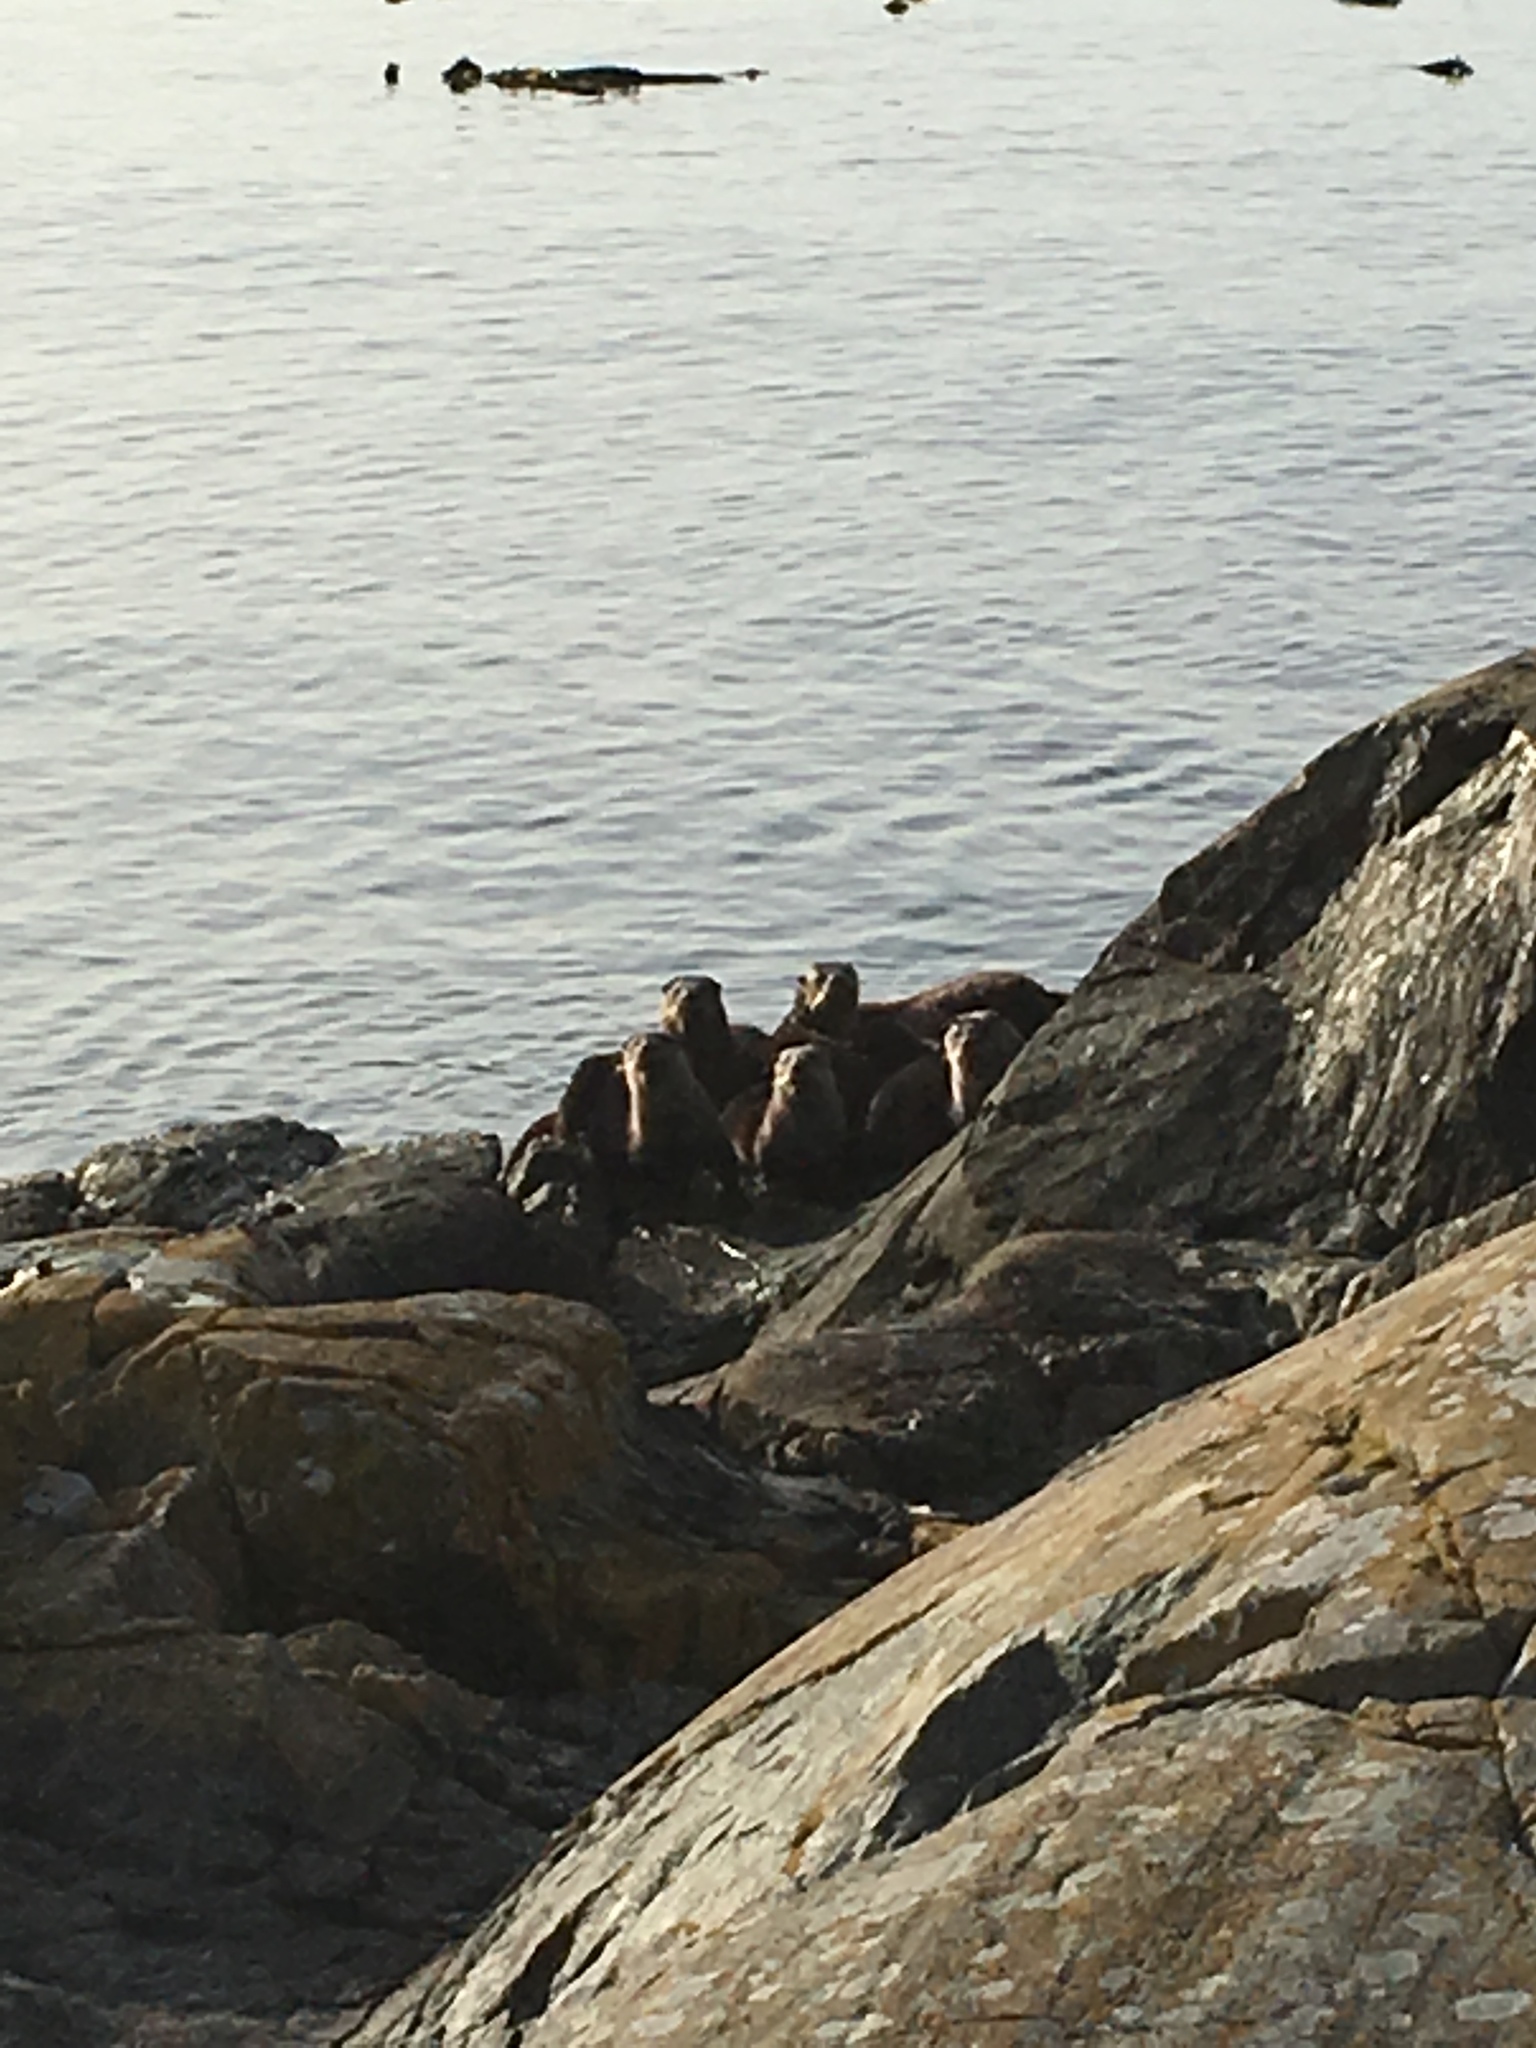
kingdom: Animalia
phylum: Chordata
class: Mammalia
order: Carnivora
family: Mustelidae
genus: Lontra
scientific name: Lontra canadensis
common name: North american river otter
